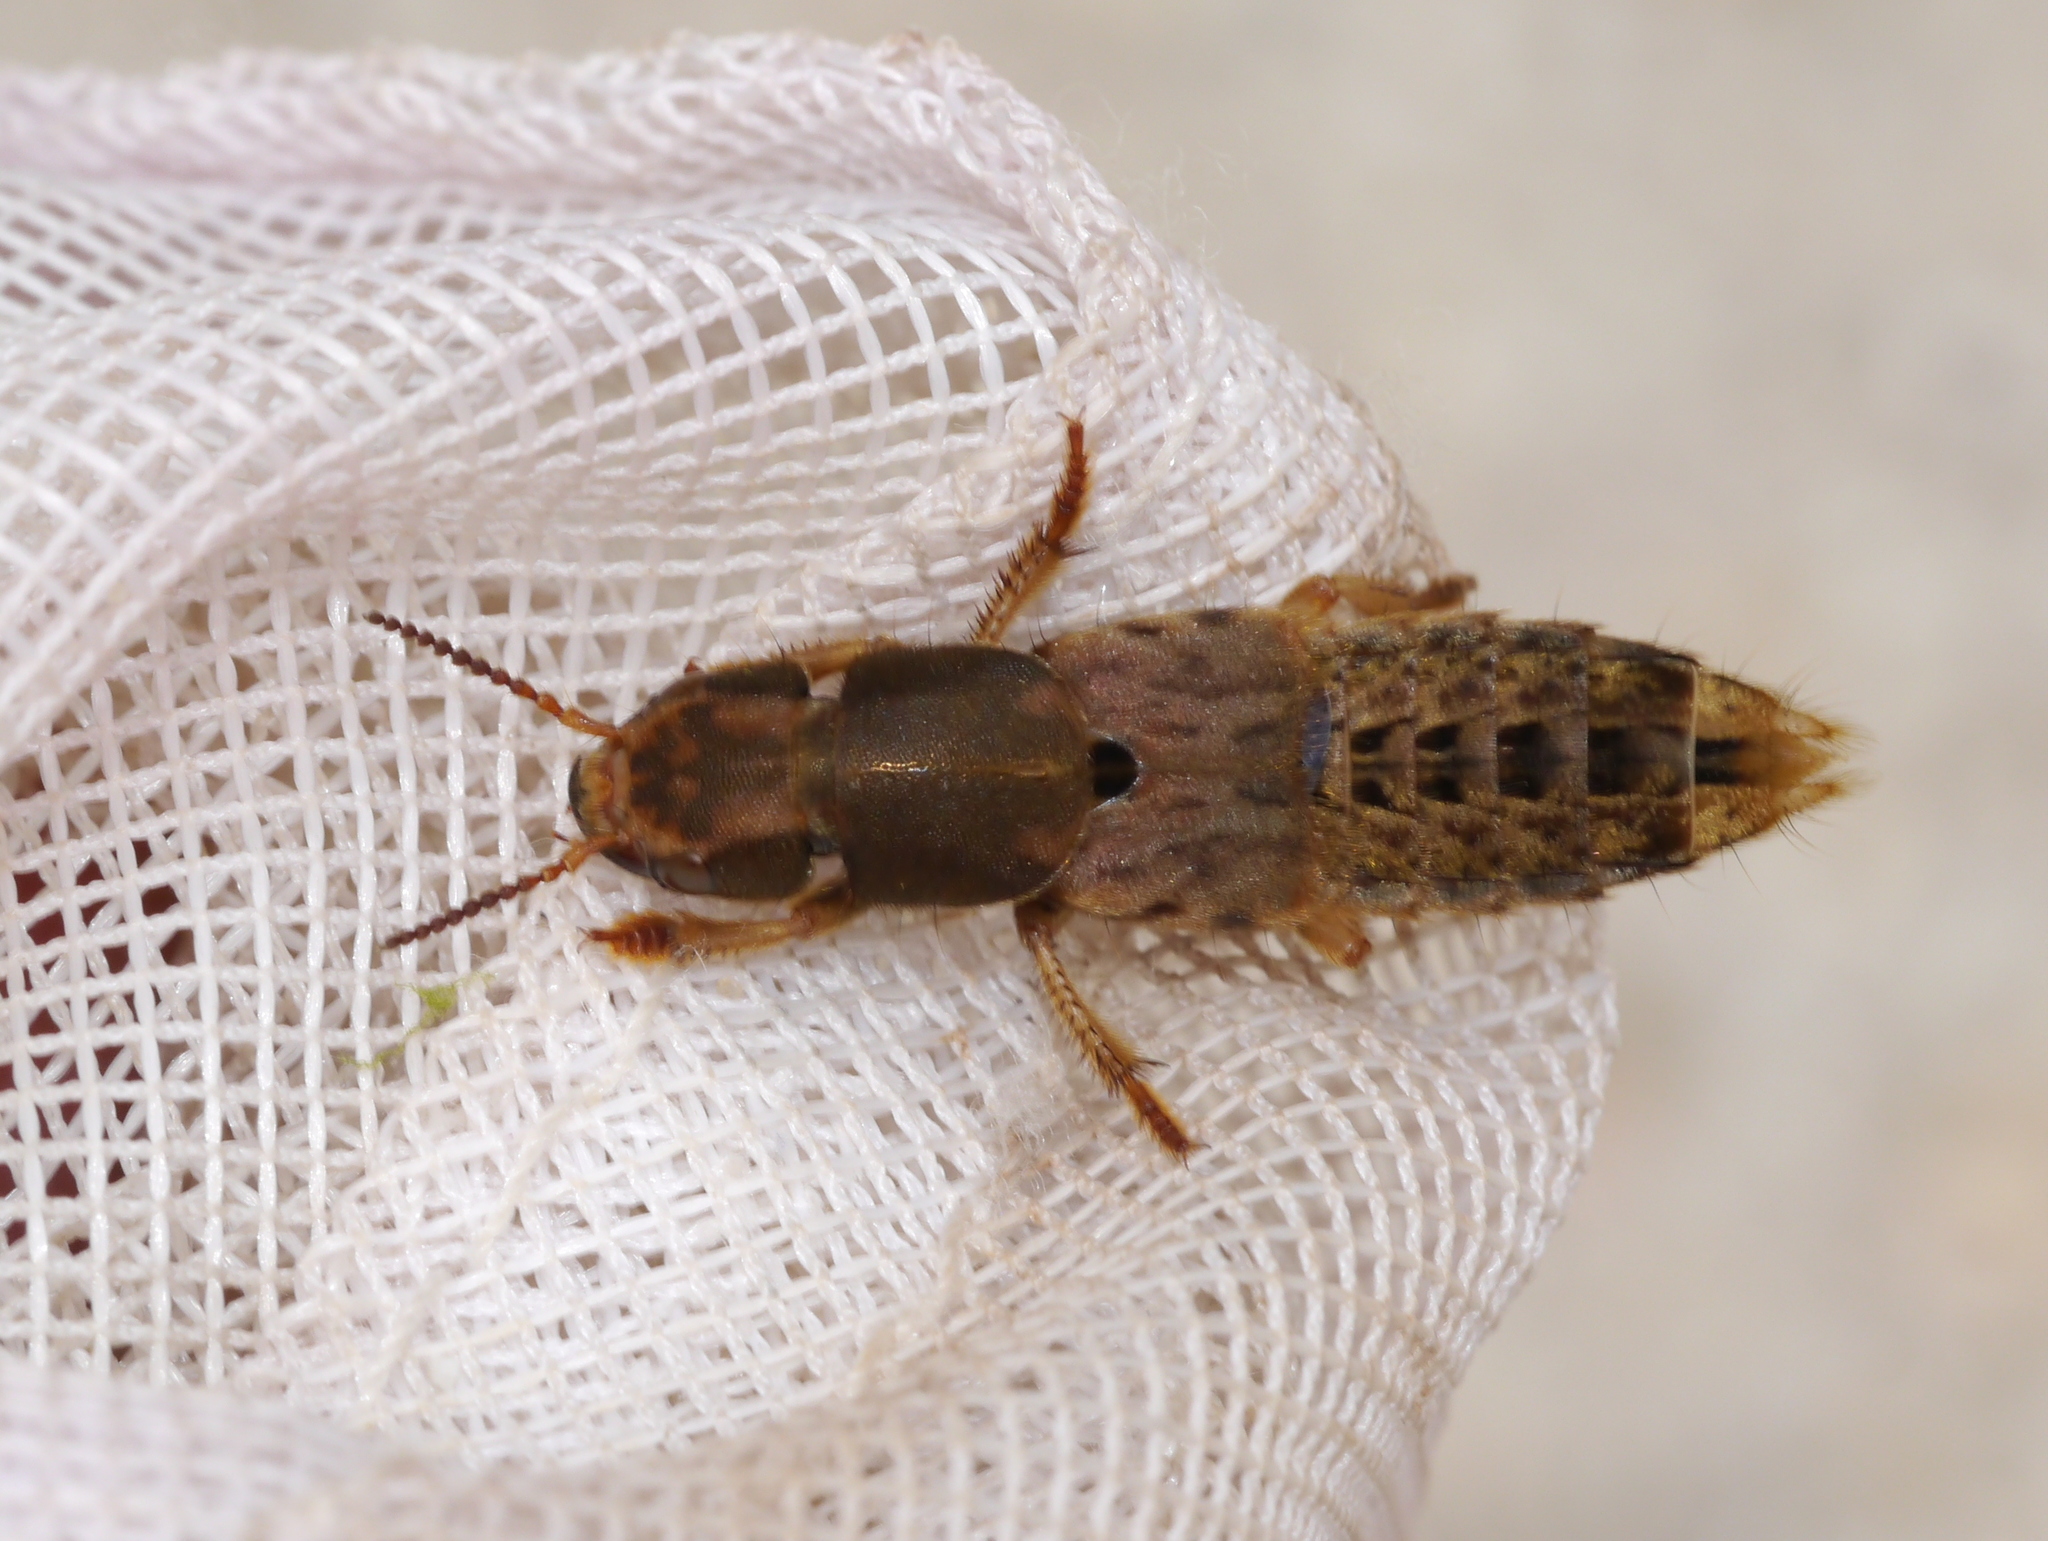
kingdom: Animalia
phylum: Arthropoda
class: Insecta
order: Coleoptera
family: Staphylinidae
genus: Platydracus
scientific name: Platydracus maculosus
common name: Brown rove beetle
